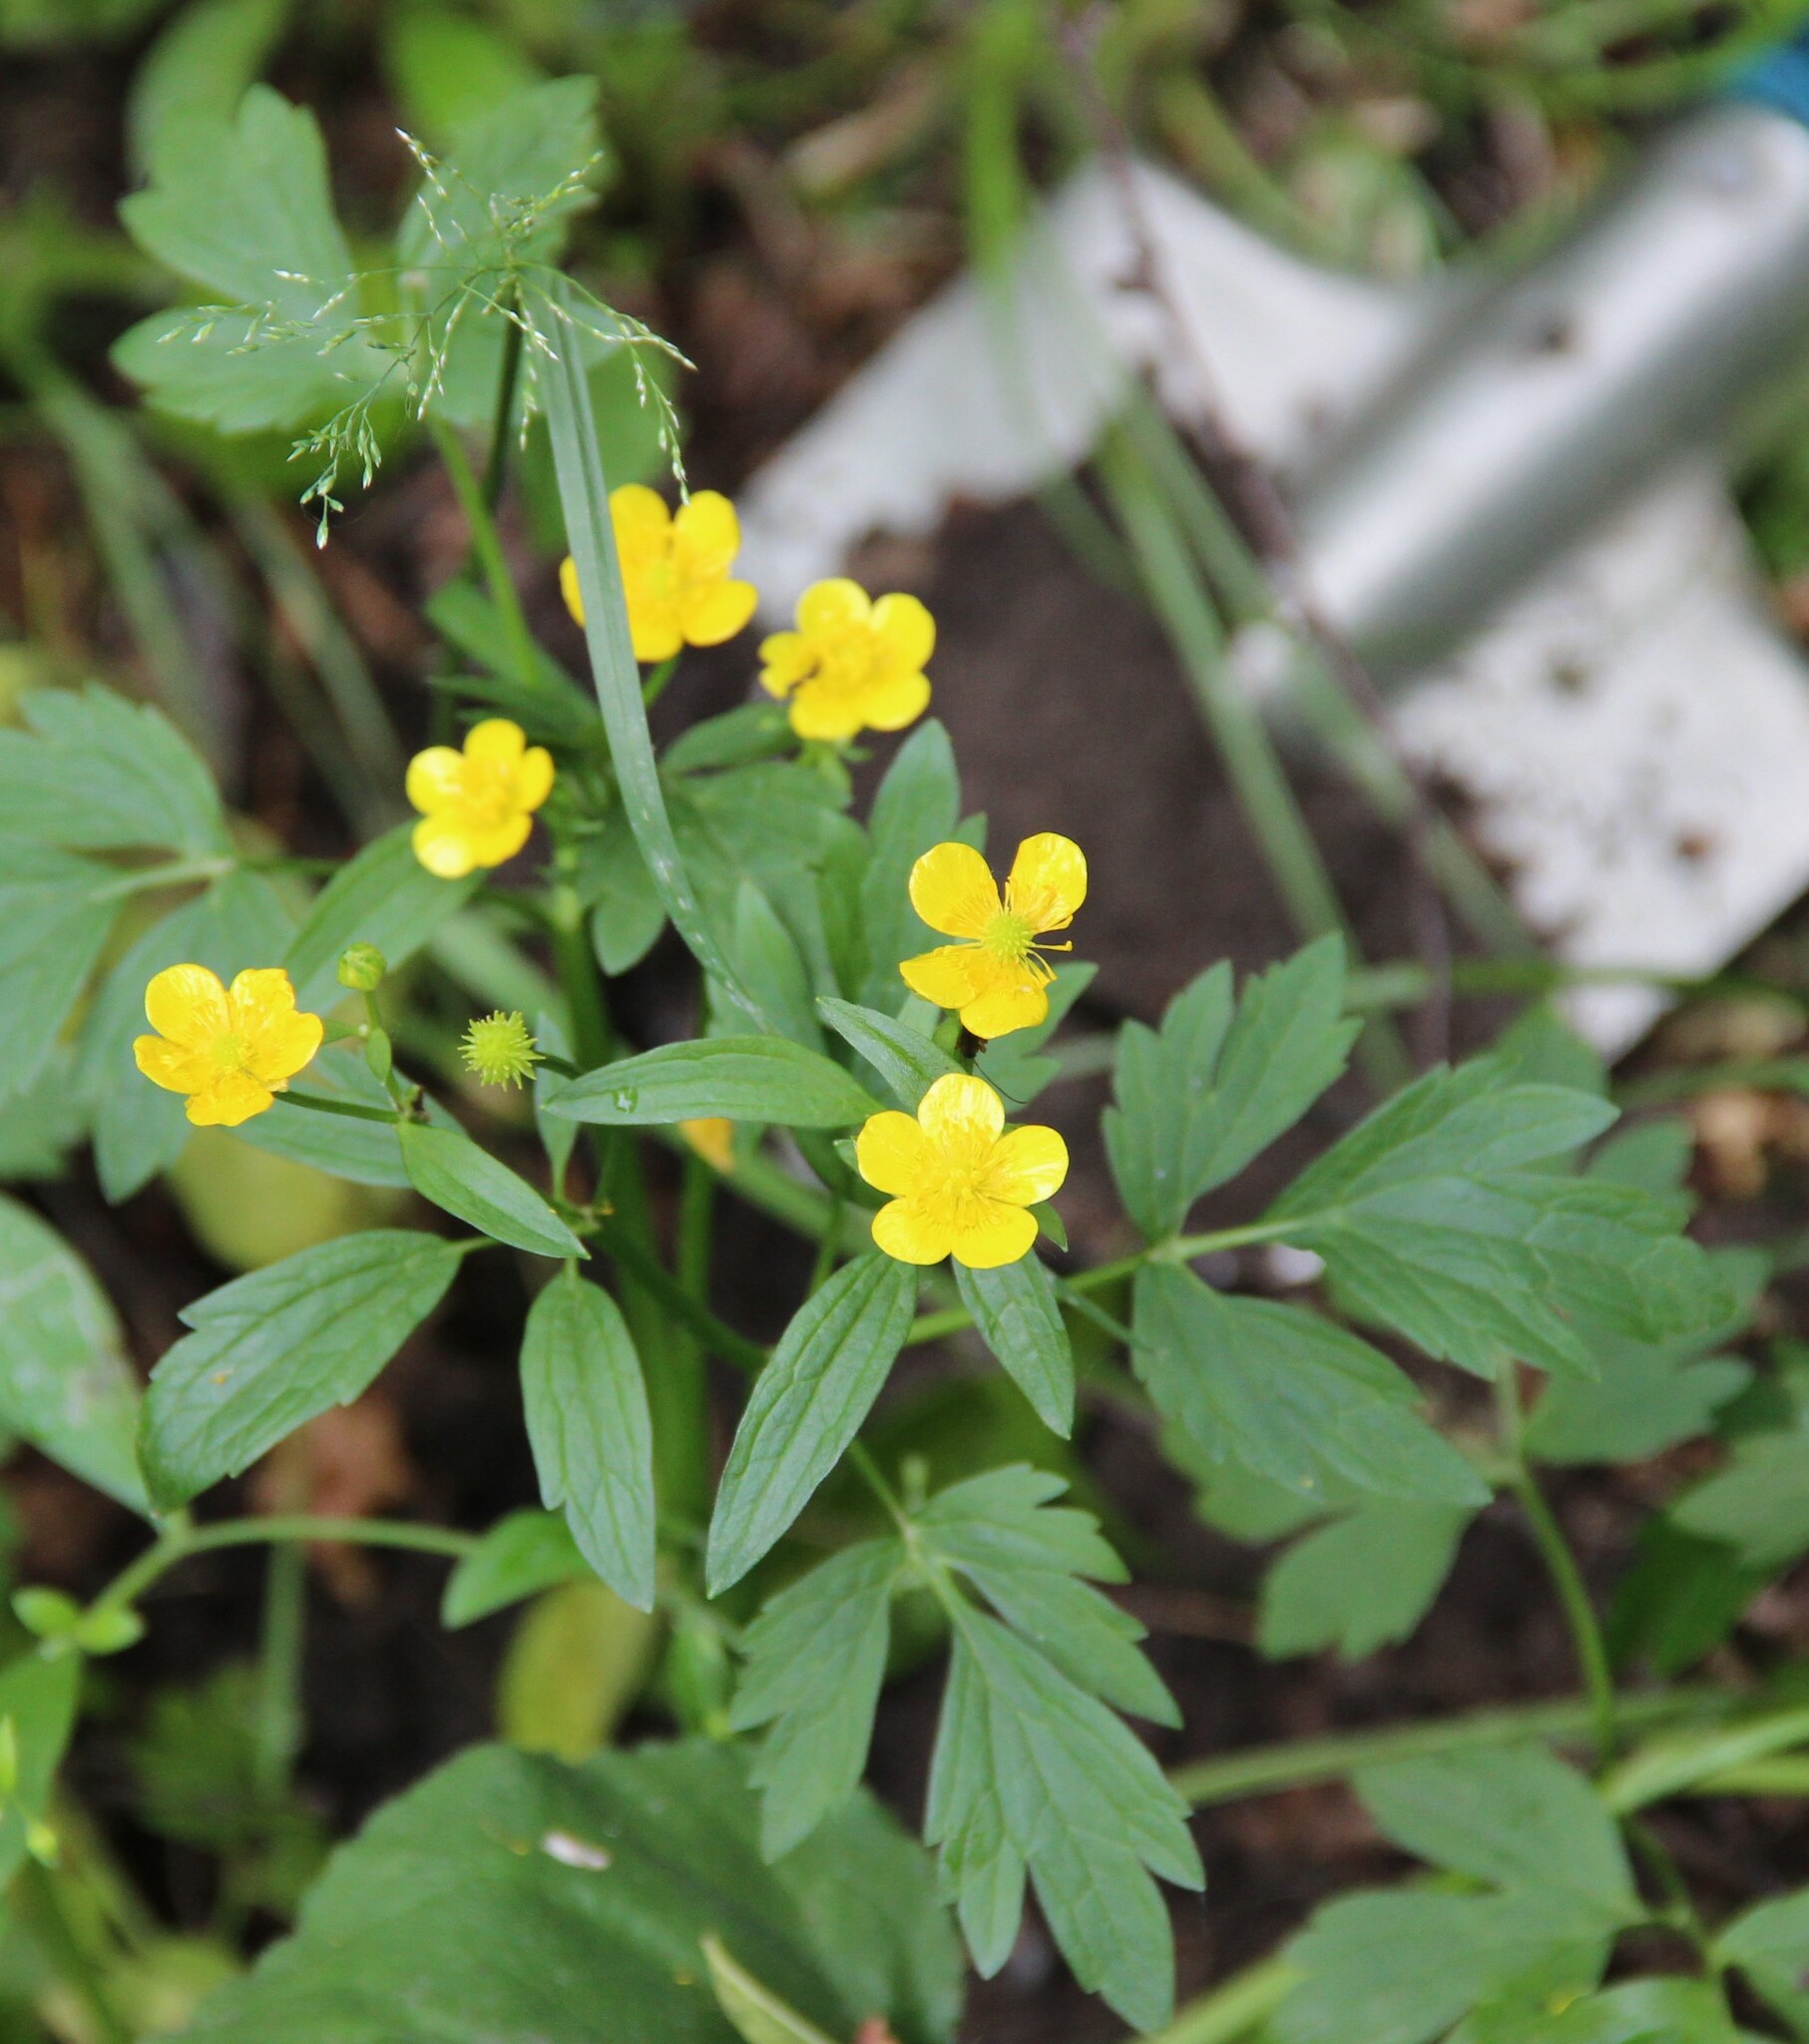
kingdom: Plantae
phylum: Tracheophyta
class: Magnoliopsida
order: Ranunculales
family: Ranunculaceae
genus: Ranunculus
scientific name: Ranunculus repens
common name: Creeping buttercup
